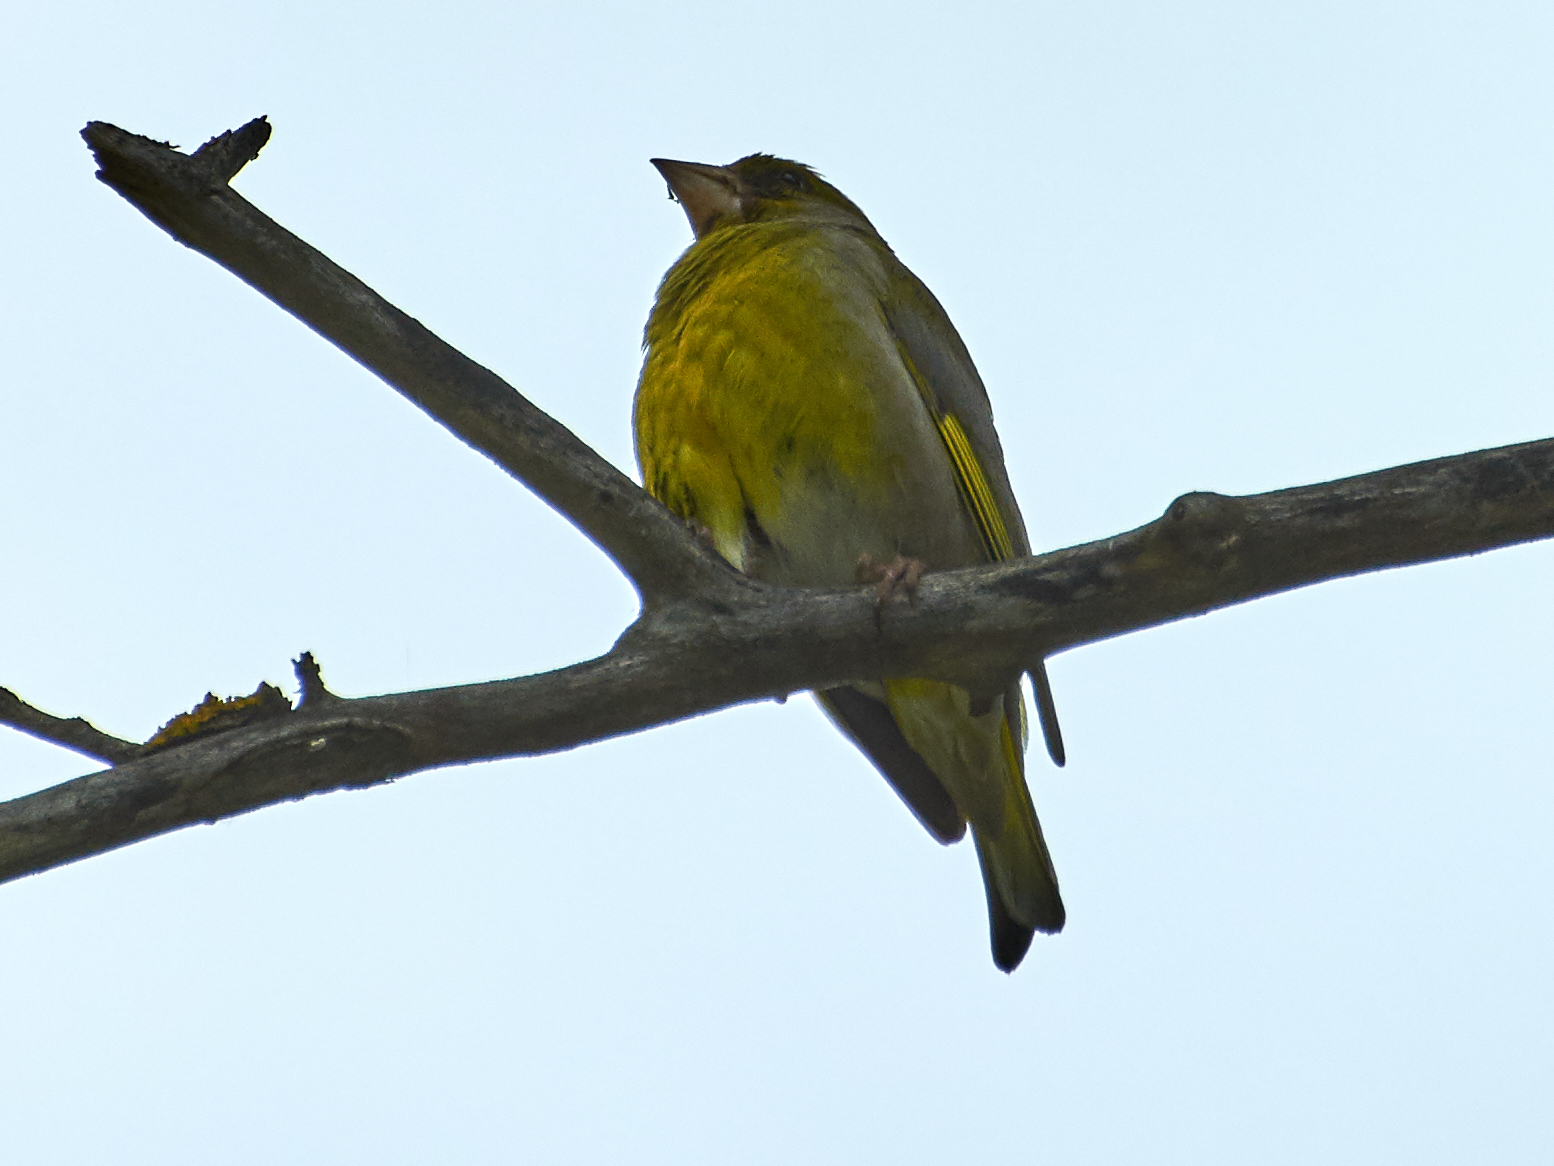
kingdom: Plantae
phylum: Tracheophyta
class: Liliopsida
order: Poales
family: Poaceae
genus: Chloris
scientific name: Chloris chloris
